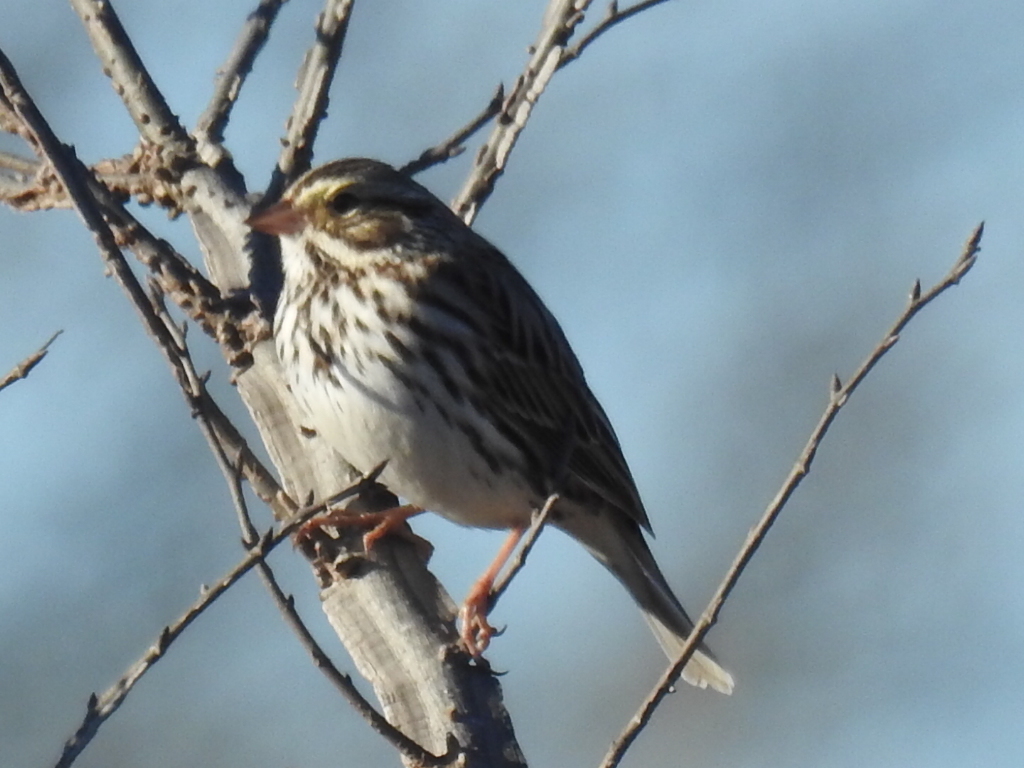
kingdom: Animalia
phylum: Chordata
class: Aves
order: Passeriformes
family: Passerellidae
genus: Passerculus
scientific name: Passerculus sandwichensis
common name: Savannah sparrow
